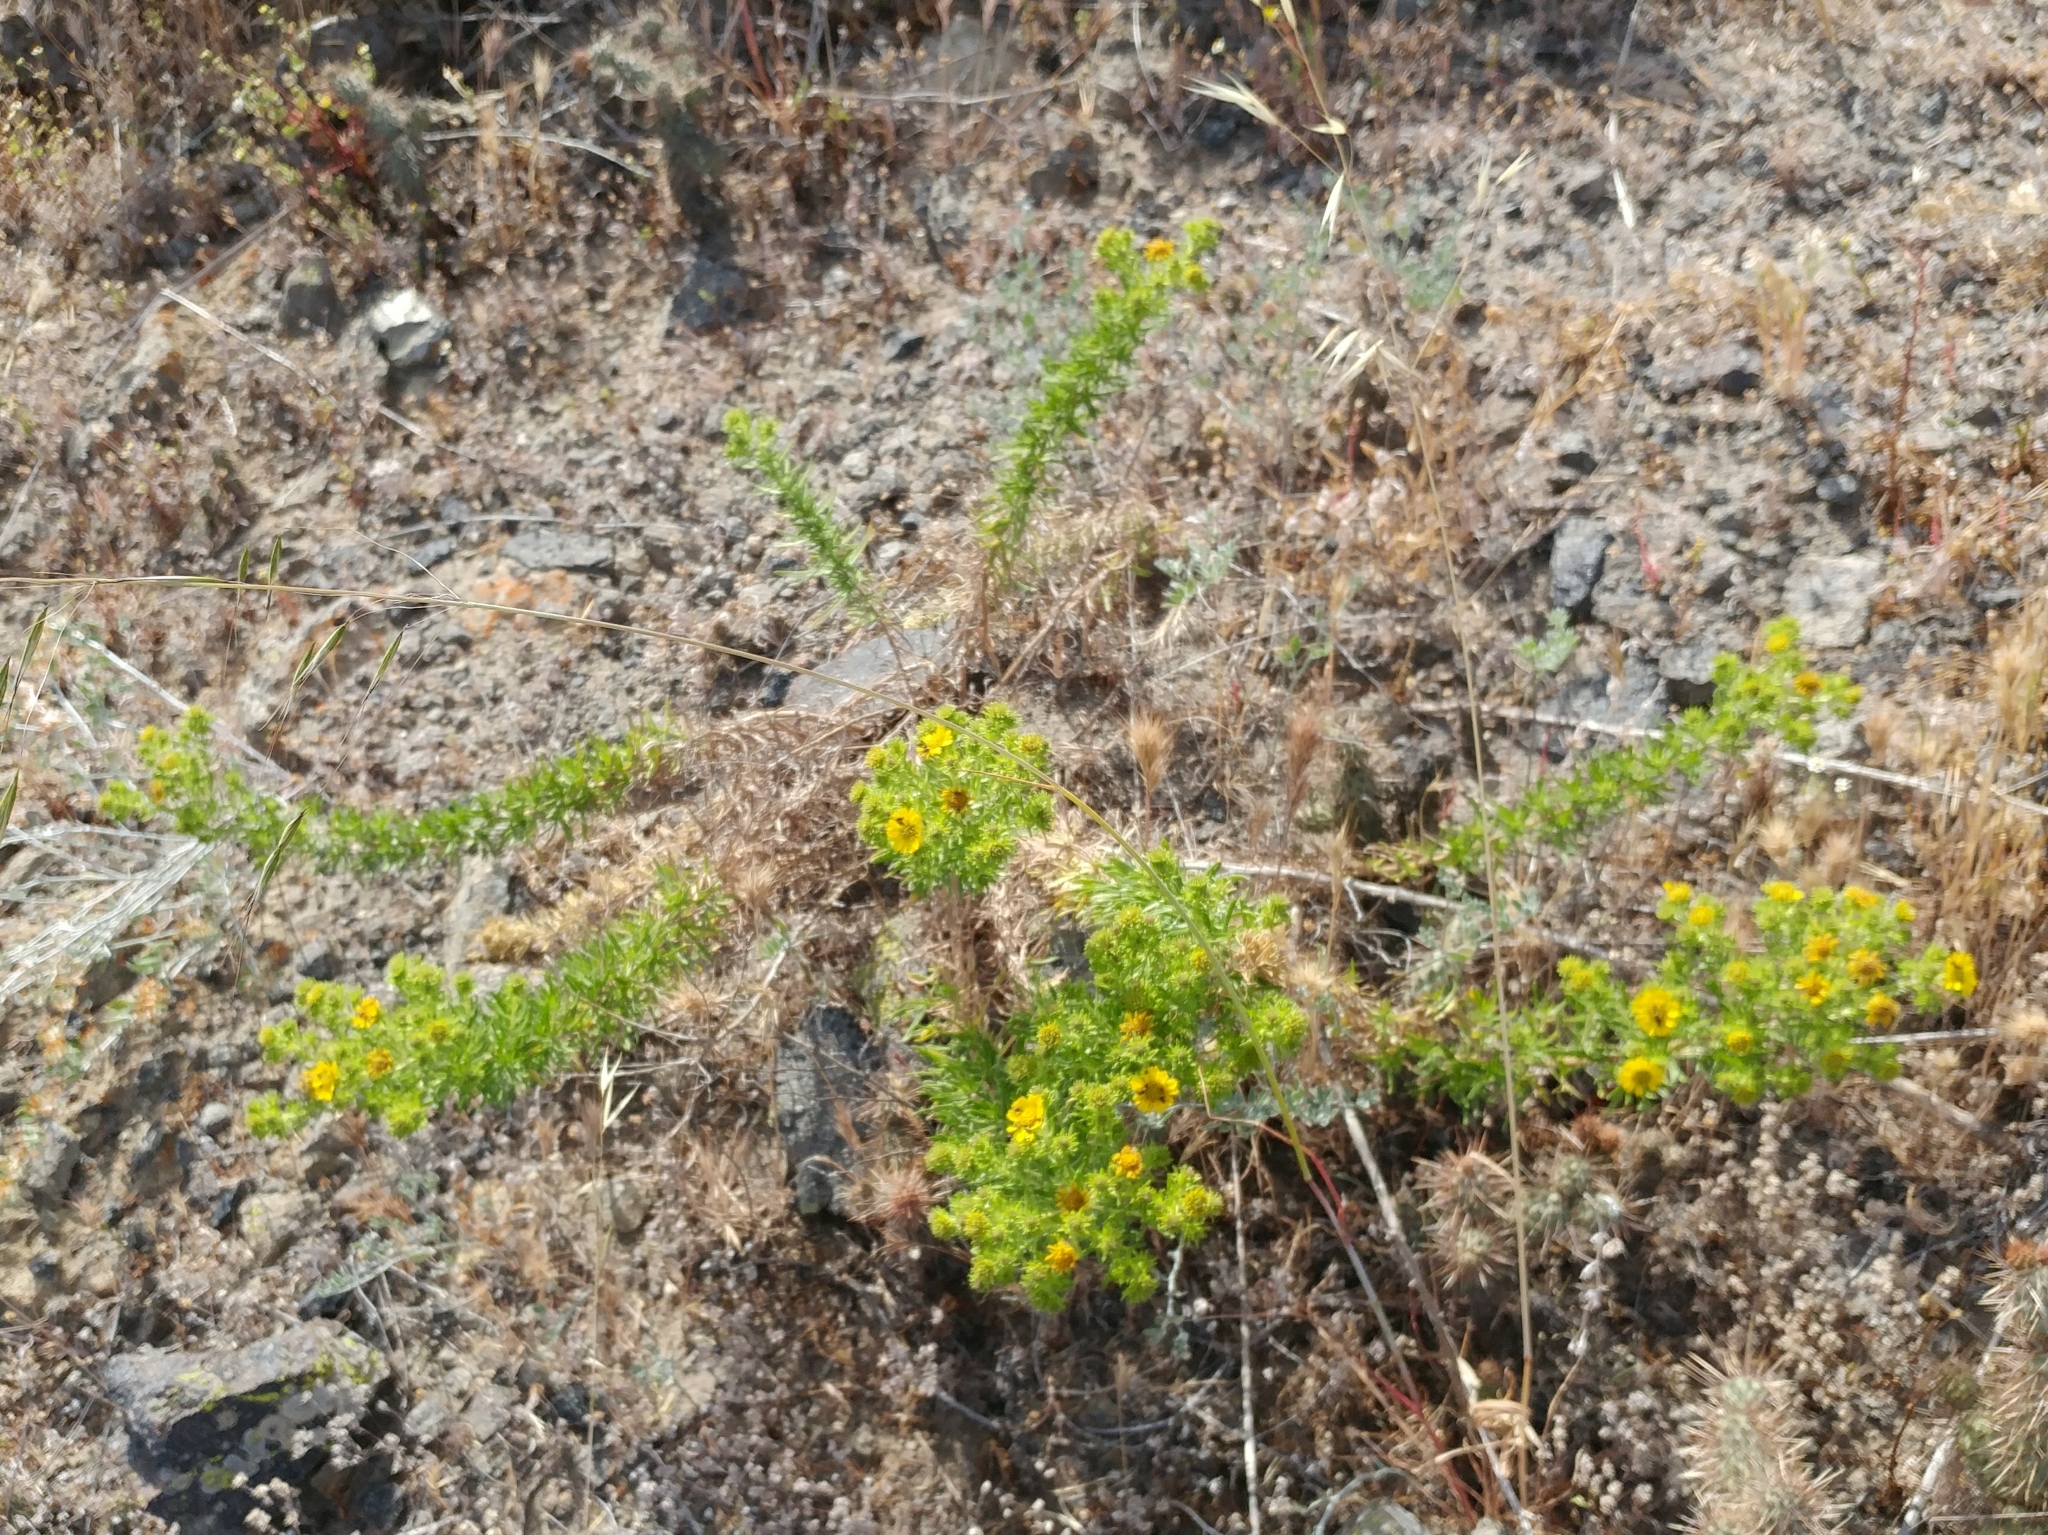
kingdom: Plantae
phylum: Tracheophyta
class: Magnoliopsida
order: Asterales
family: Asteraceae
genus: Deinandra
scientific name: Deinandra clementina
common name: Island tarplant
